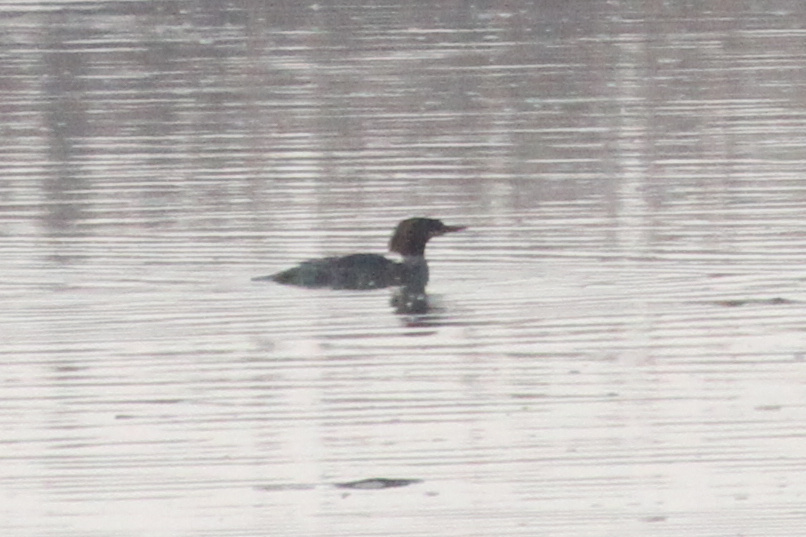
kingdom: Animalia
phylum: Chordata
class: Aves
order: Anseriformes
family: Anatidae
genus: Mergus
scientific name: Mergus merganser
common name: Common merganser
